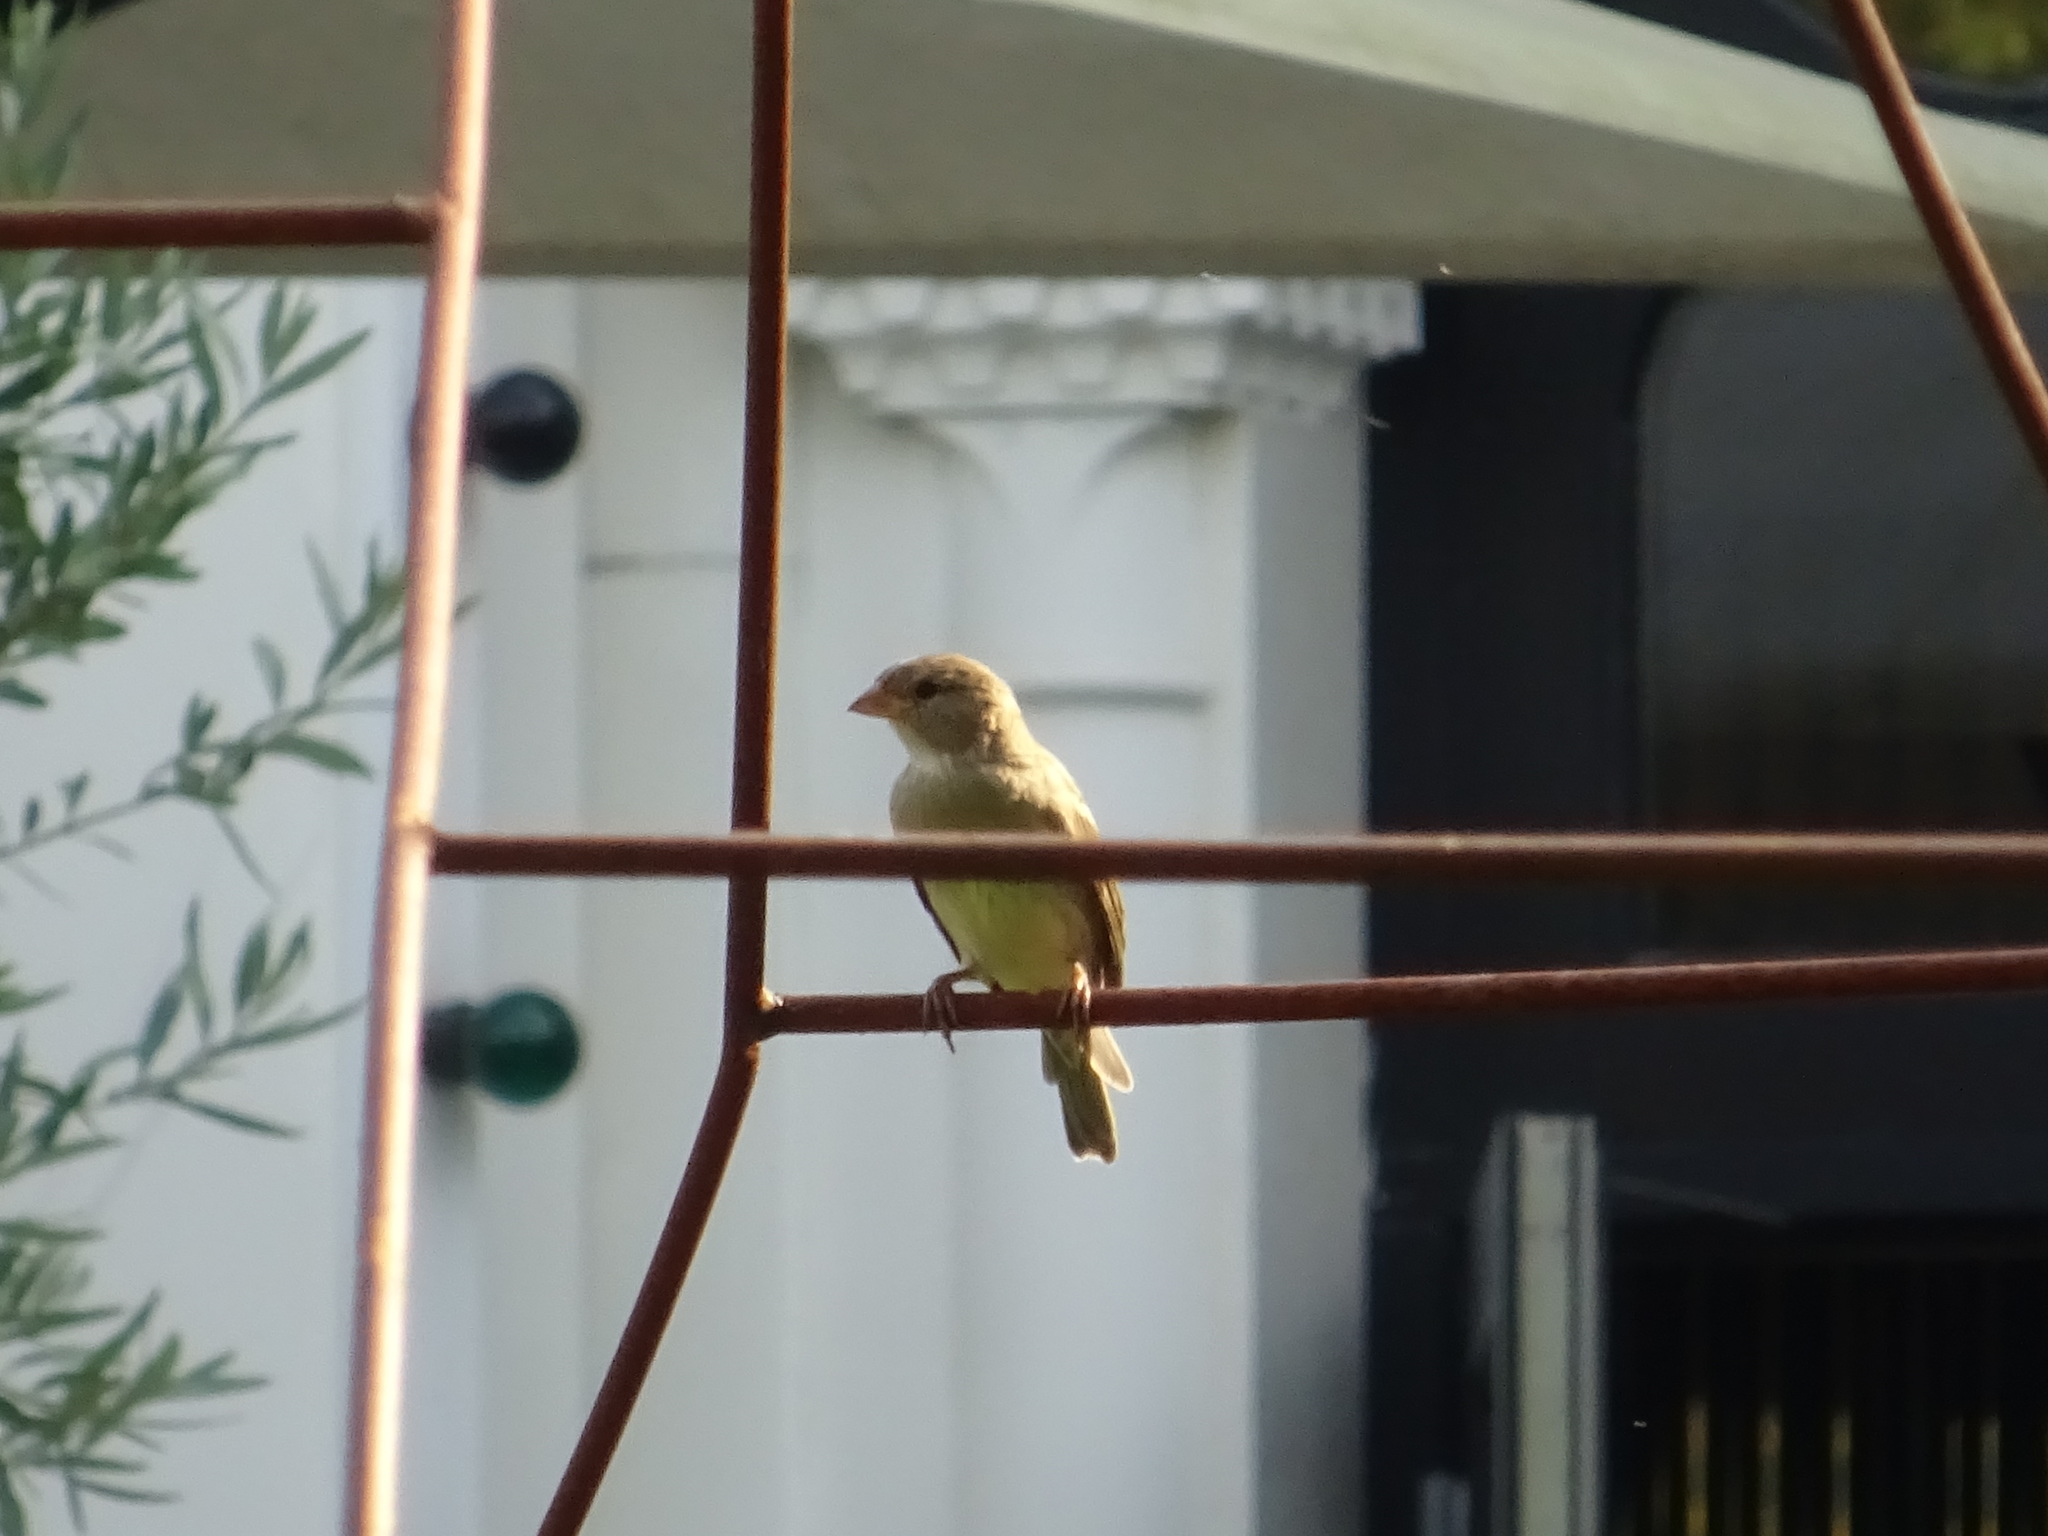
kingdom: Animalia
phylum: Chordata
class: Aves
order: Passeriformes
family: Passeridae
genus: Passer
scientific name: Passer domesticus
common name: House sparrow
